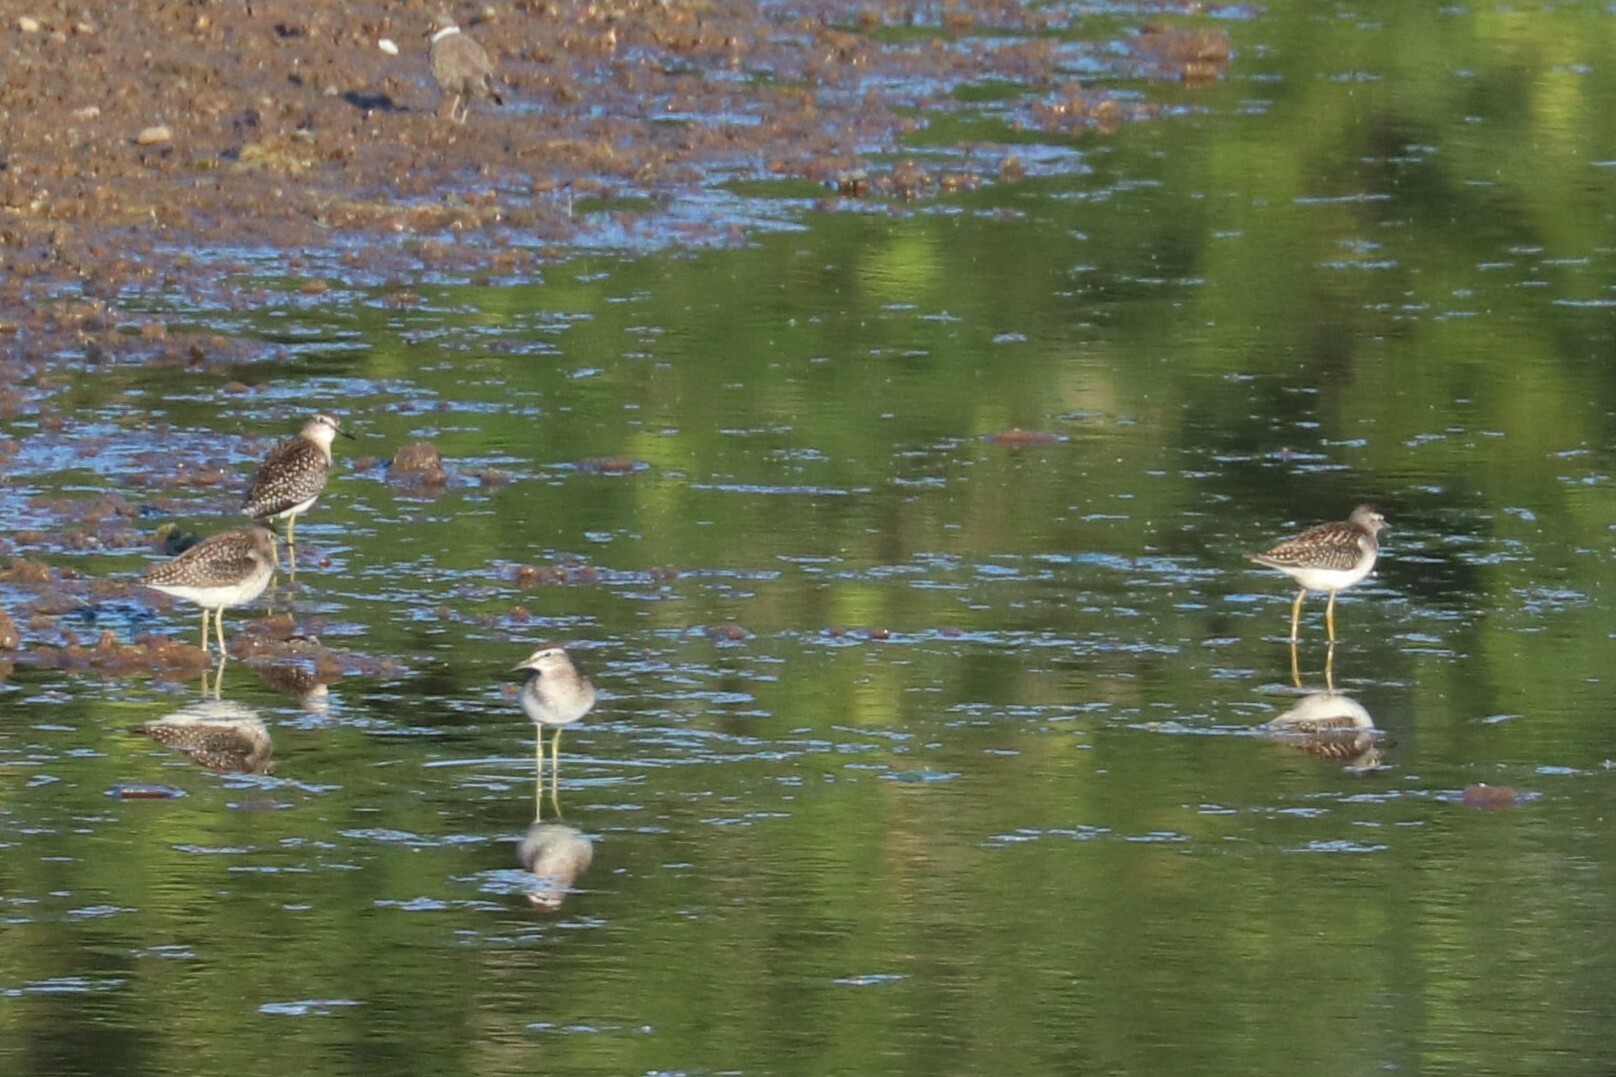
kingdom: Animalia
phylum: Chordata
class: Aves
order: Charadriiformes
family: Scolopacidae
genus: Tringa
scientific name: Tringa glareola
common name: Wood sandpiper
